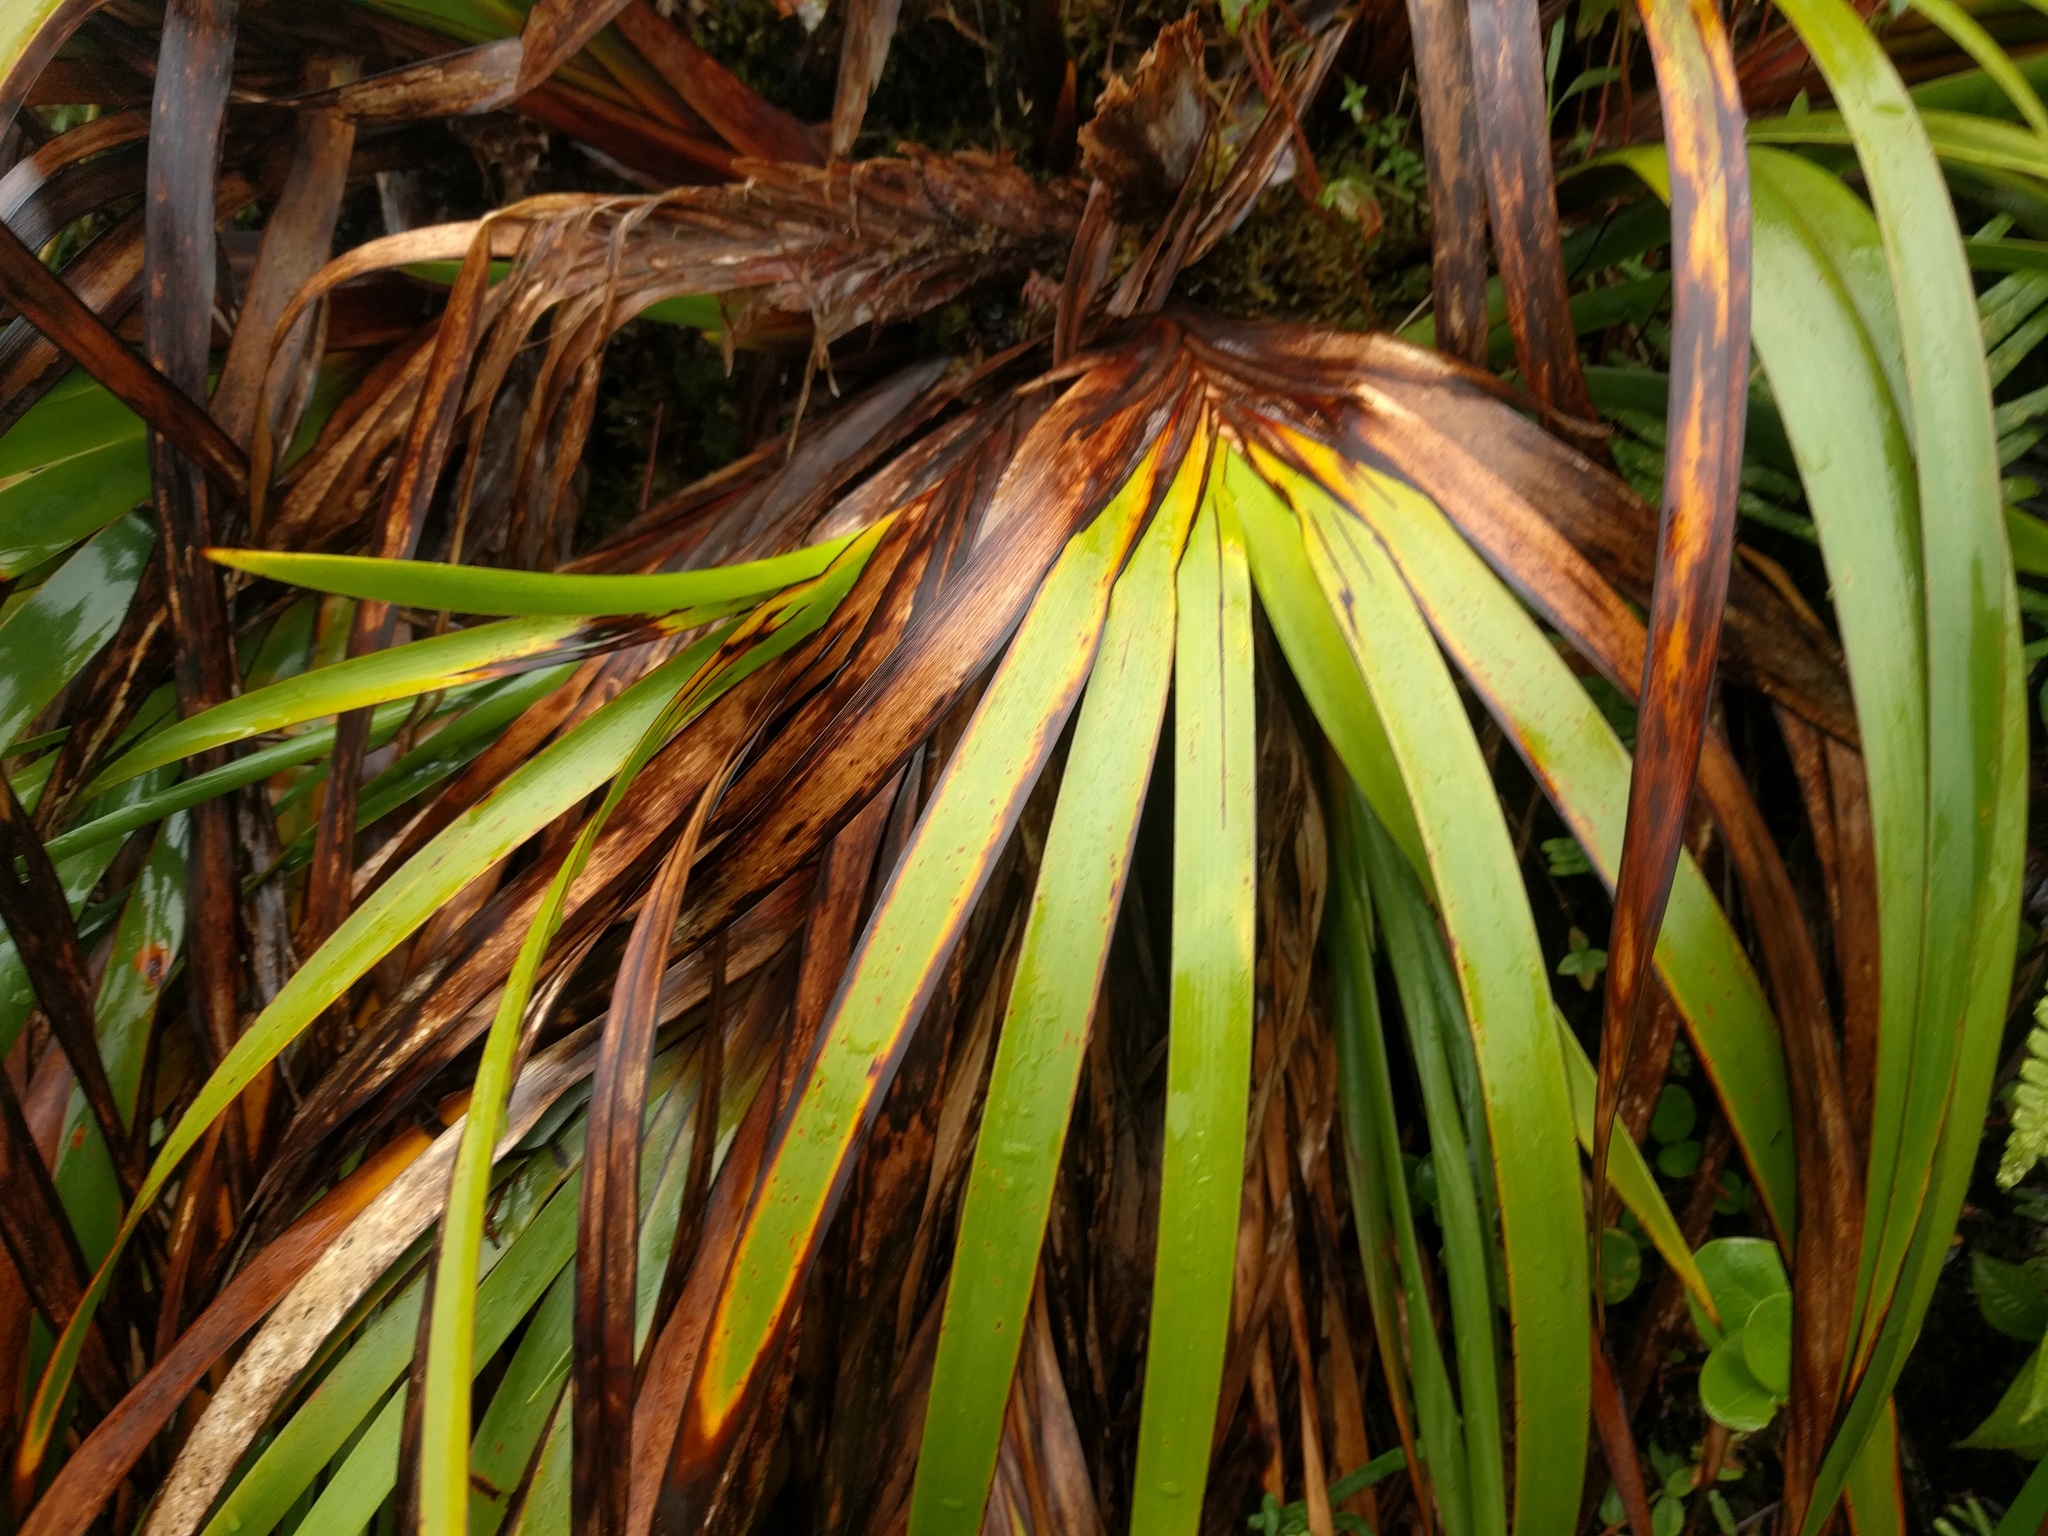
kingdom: Plantae
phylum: Tracheophyta
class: Liliopsida
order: Poales
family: Cyperaceae
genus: Machaerina
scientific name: Machaerina angustifolia
